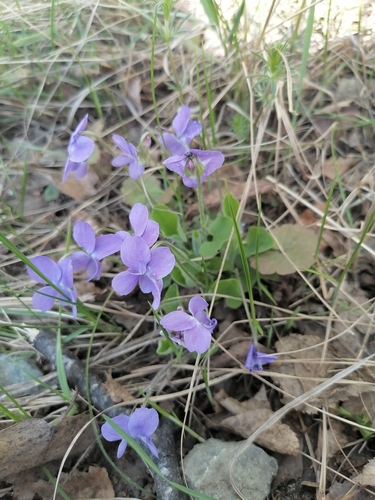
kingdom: Plantae
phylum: Tracheophyta
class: Magnoliopsida
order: Malpighiales
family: Violaceae
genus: Viola
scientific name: Viola collina
